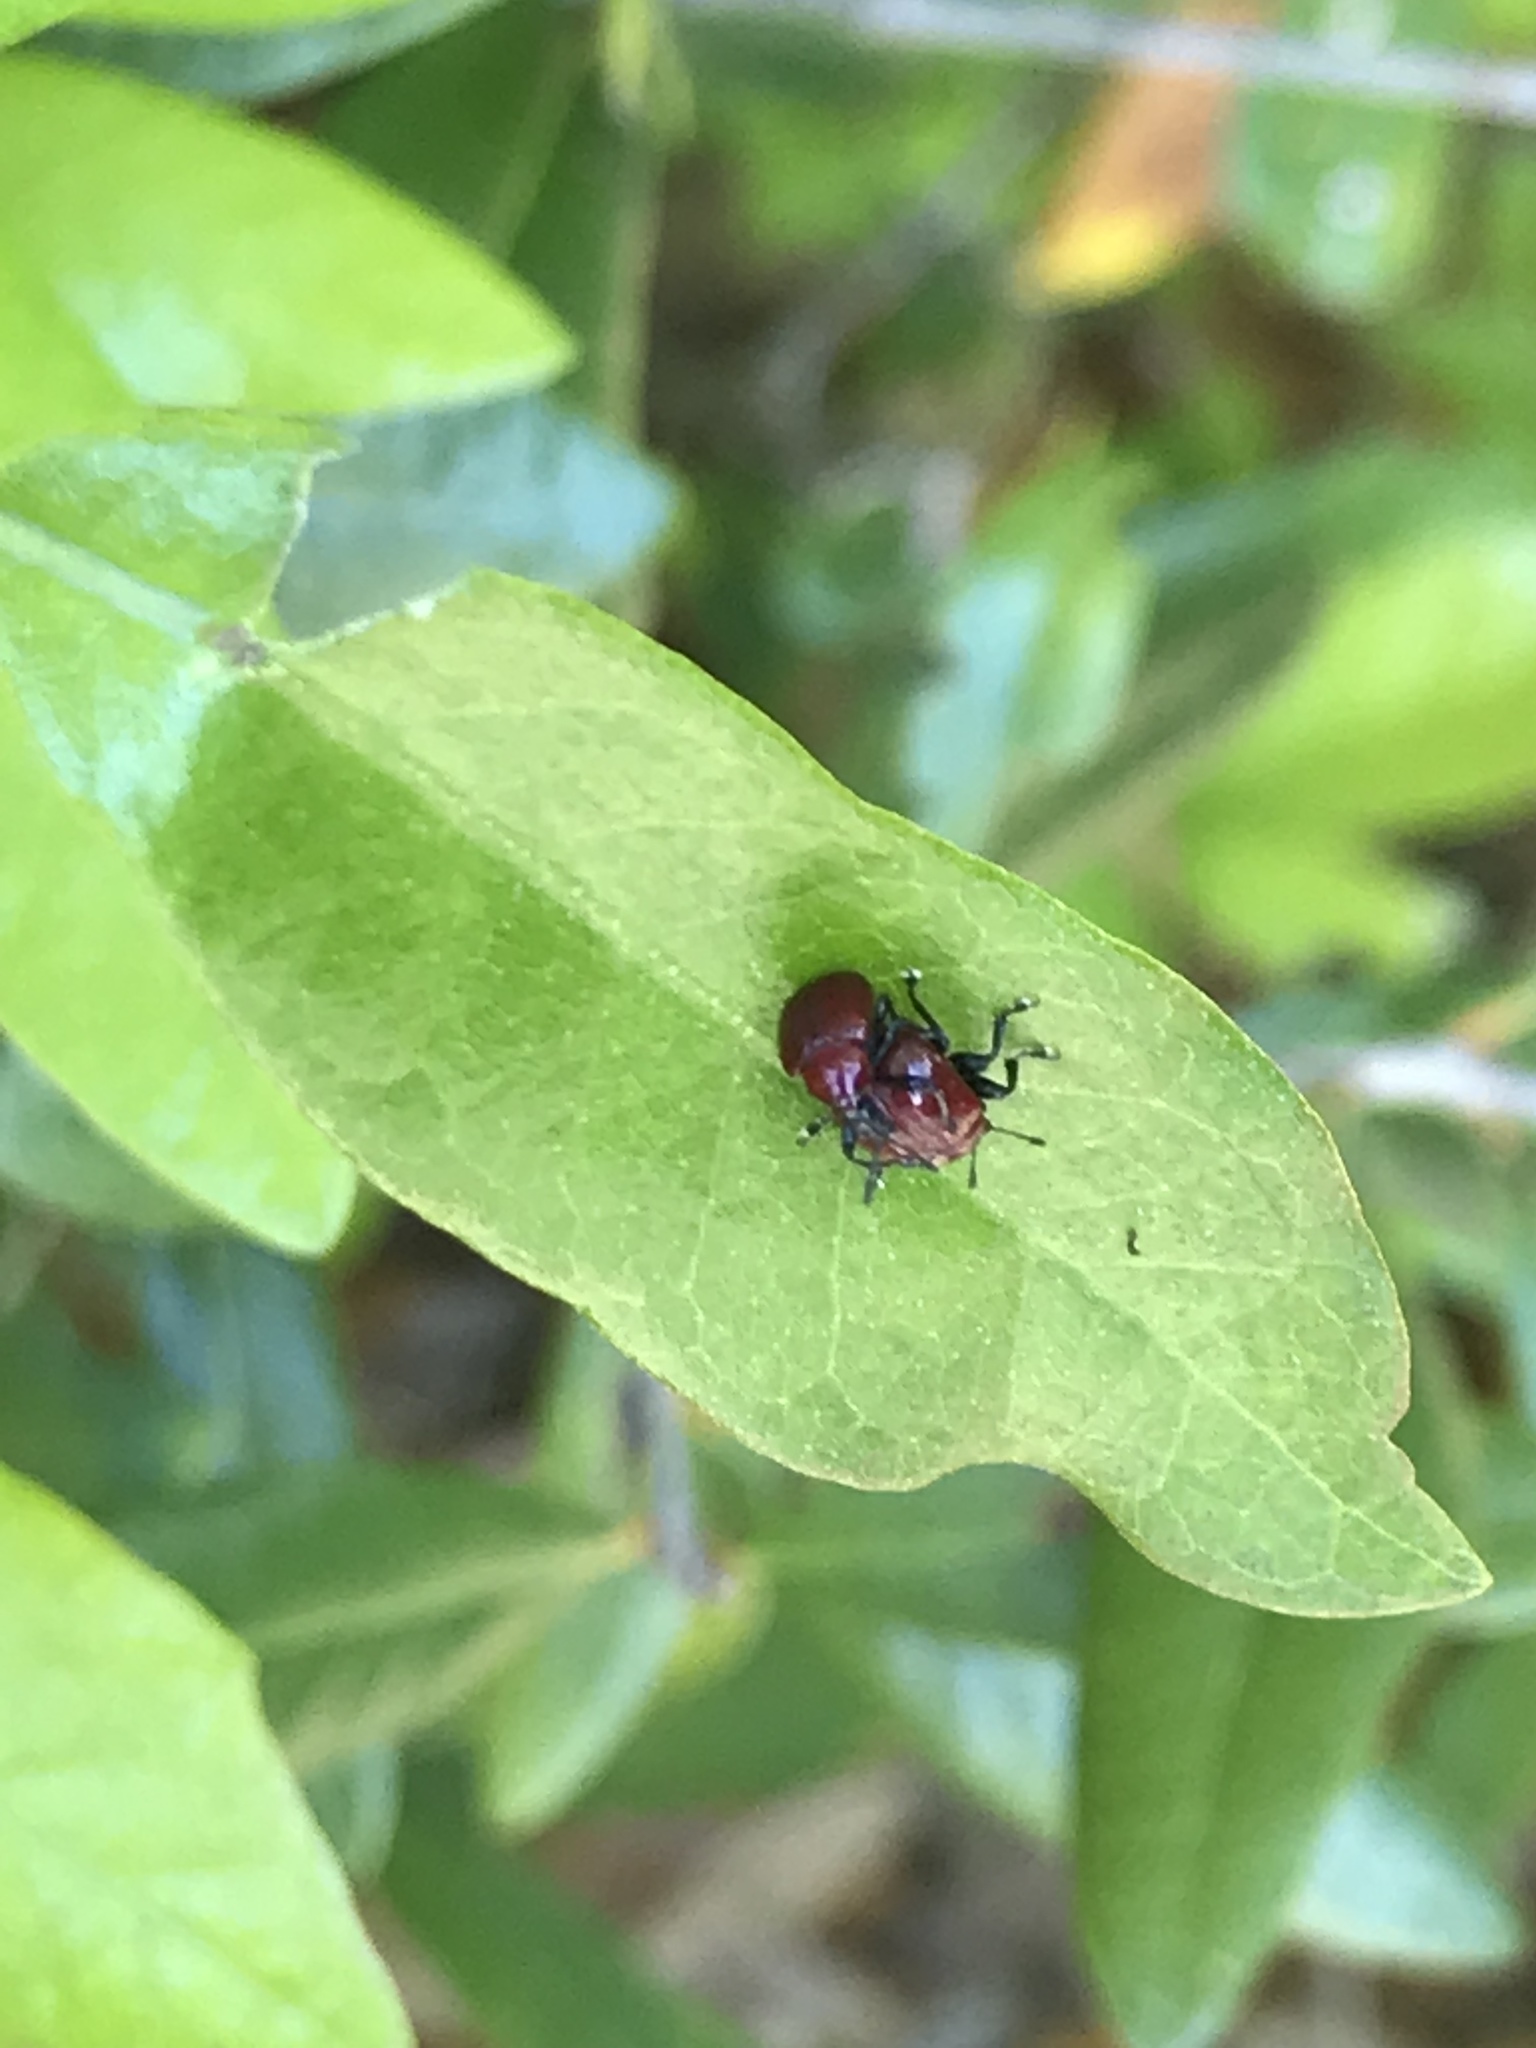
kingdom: Animalia
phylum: Arthropoda
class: Insecta
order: Coleoptera
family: Attelabidae
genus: Homoeolabus
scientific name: Homoeolabus analis
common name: Oak leaf rolling weevil
